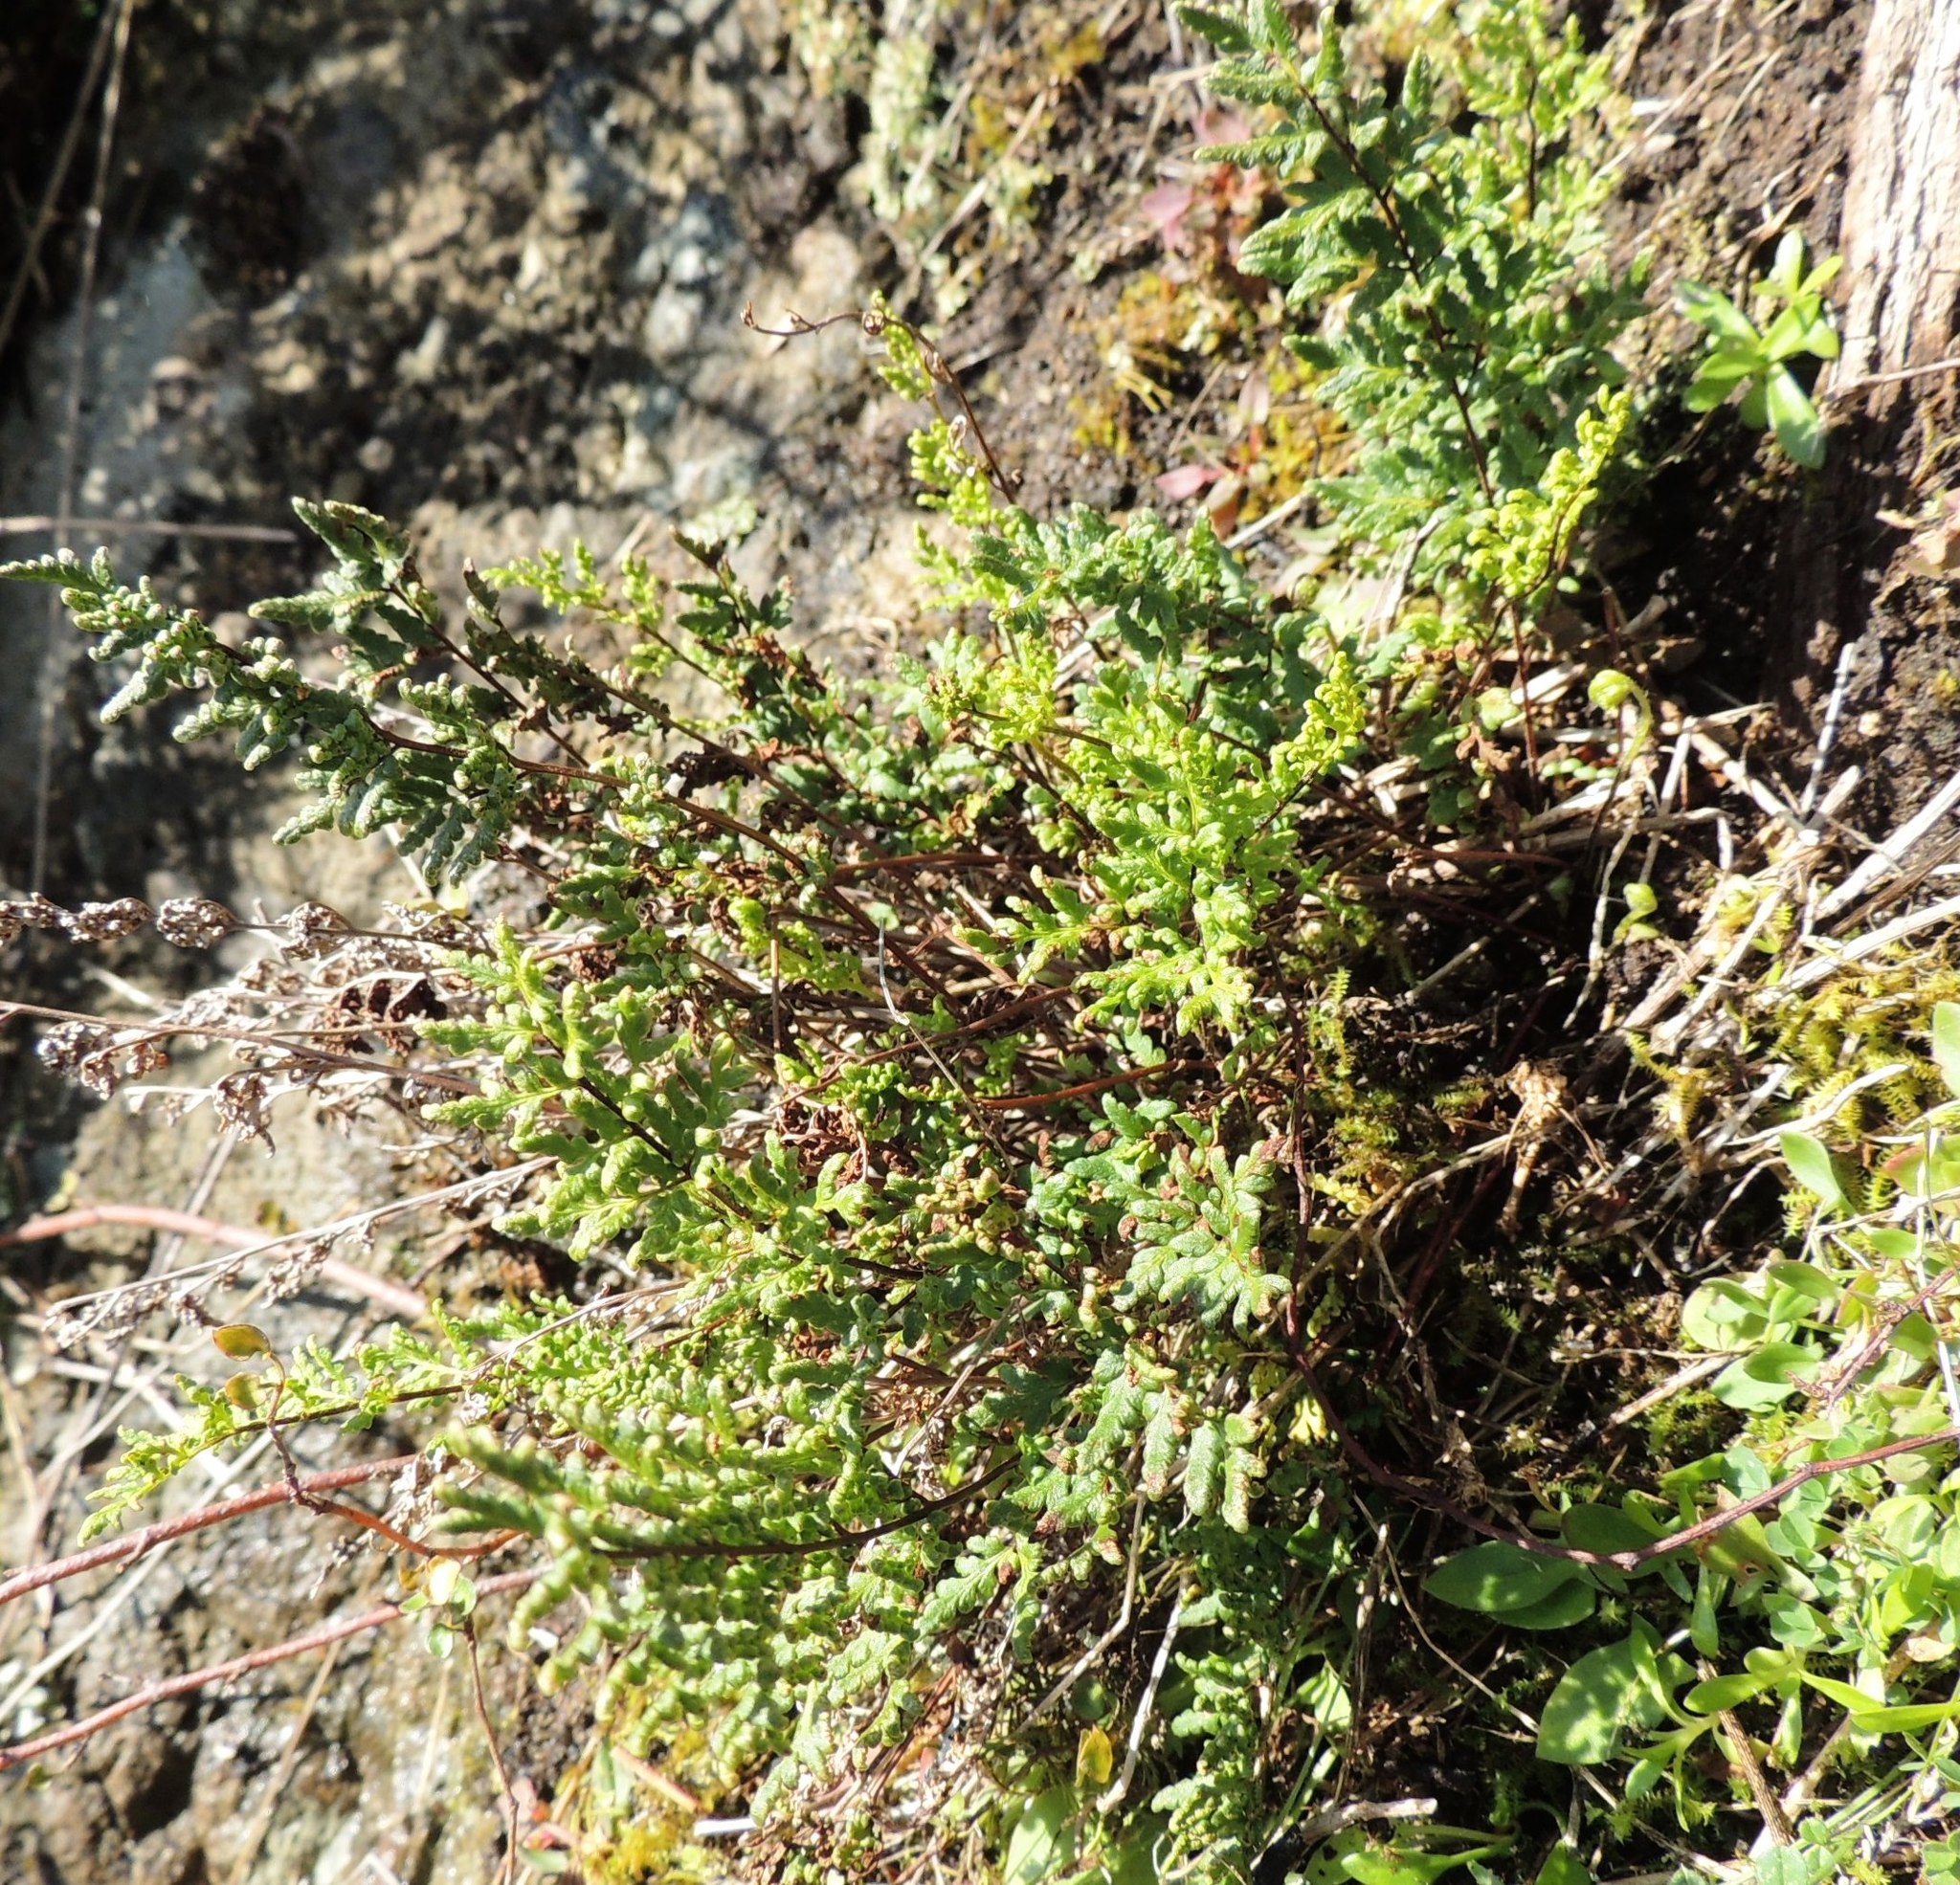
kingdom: Plantae
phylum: Tracheophyta
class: Polypodiopsida
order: Polypodiales
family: Pteridaceae
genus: Cheilanthes
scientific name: Cheilanthes sieberi
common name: Mulga fern
